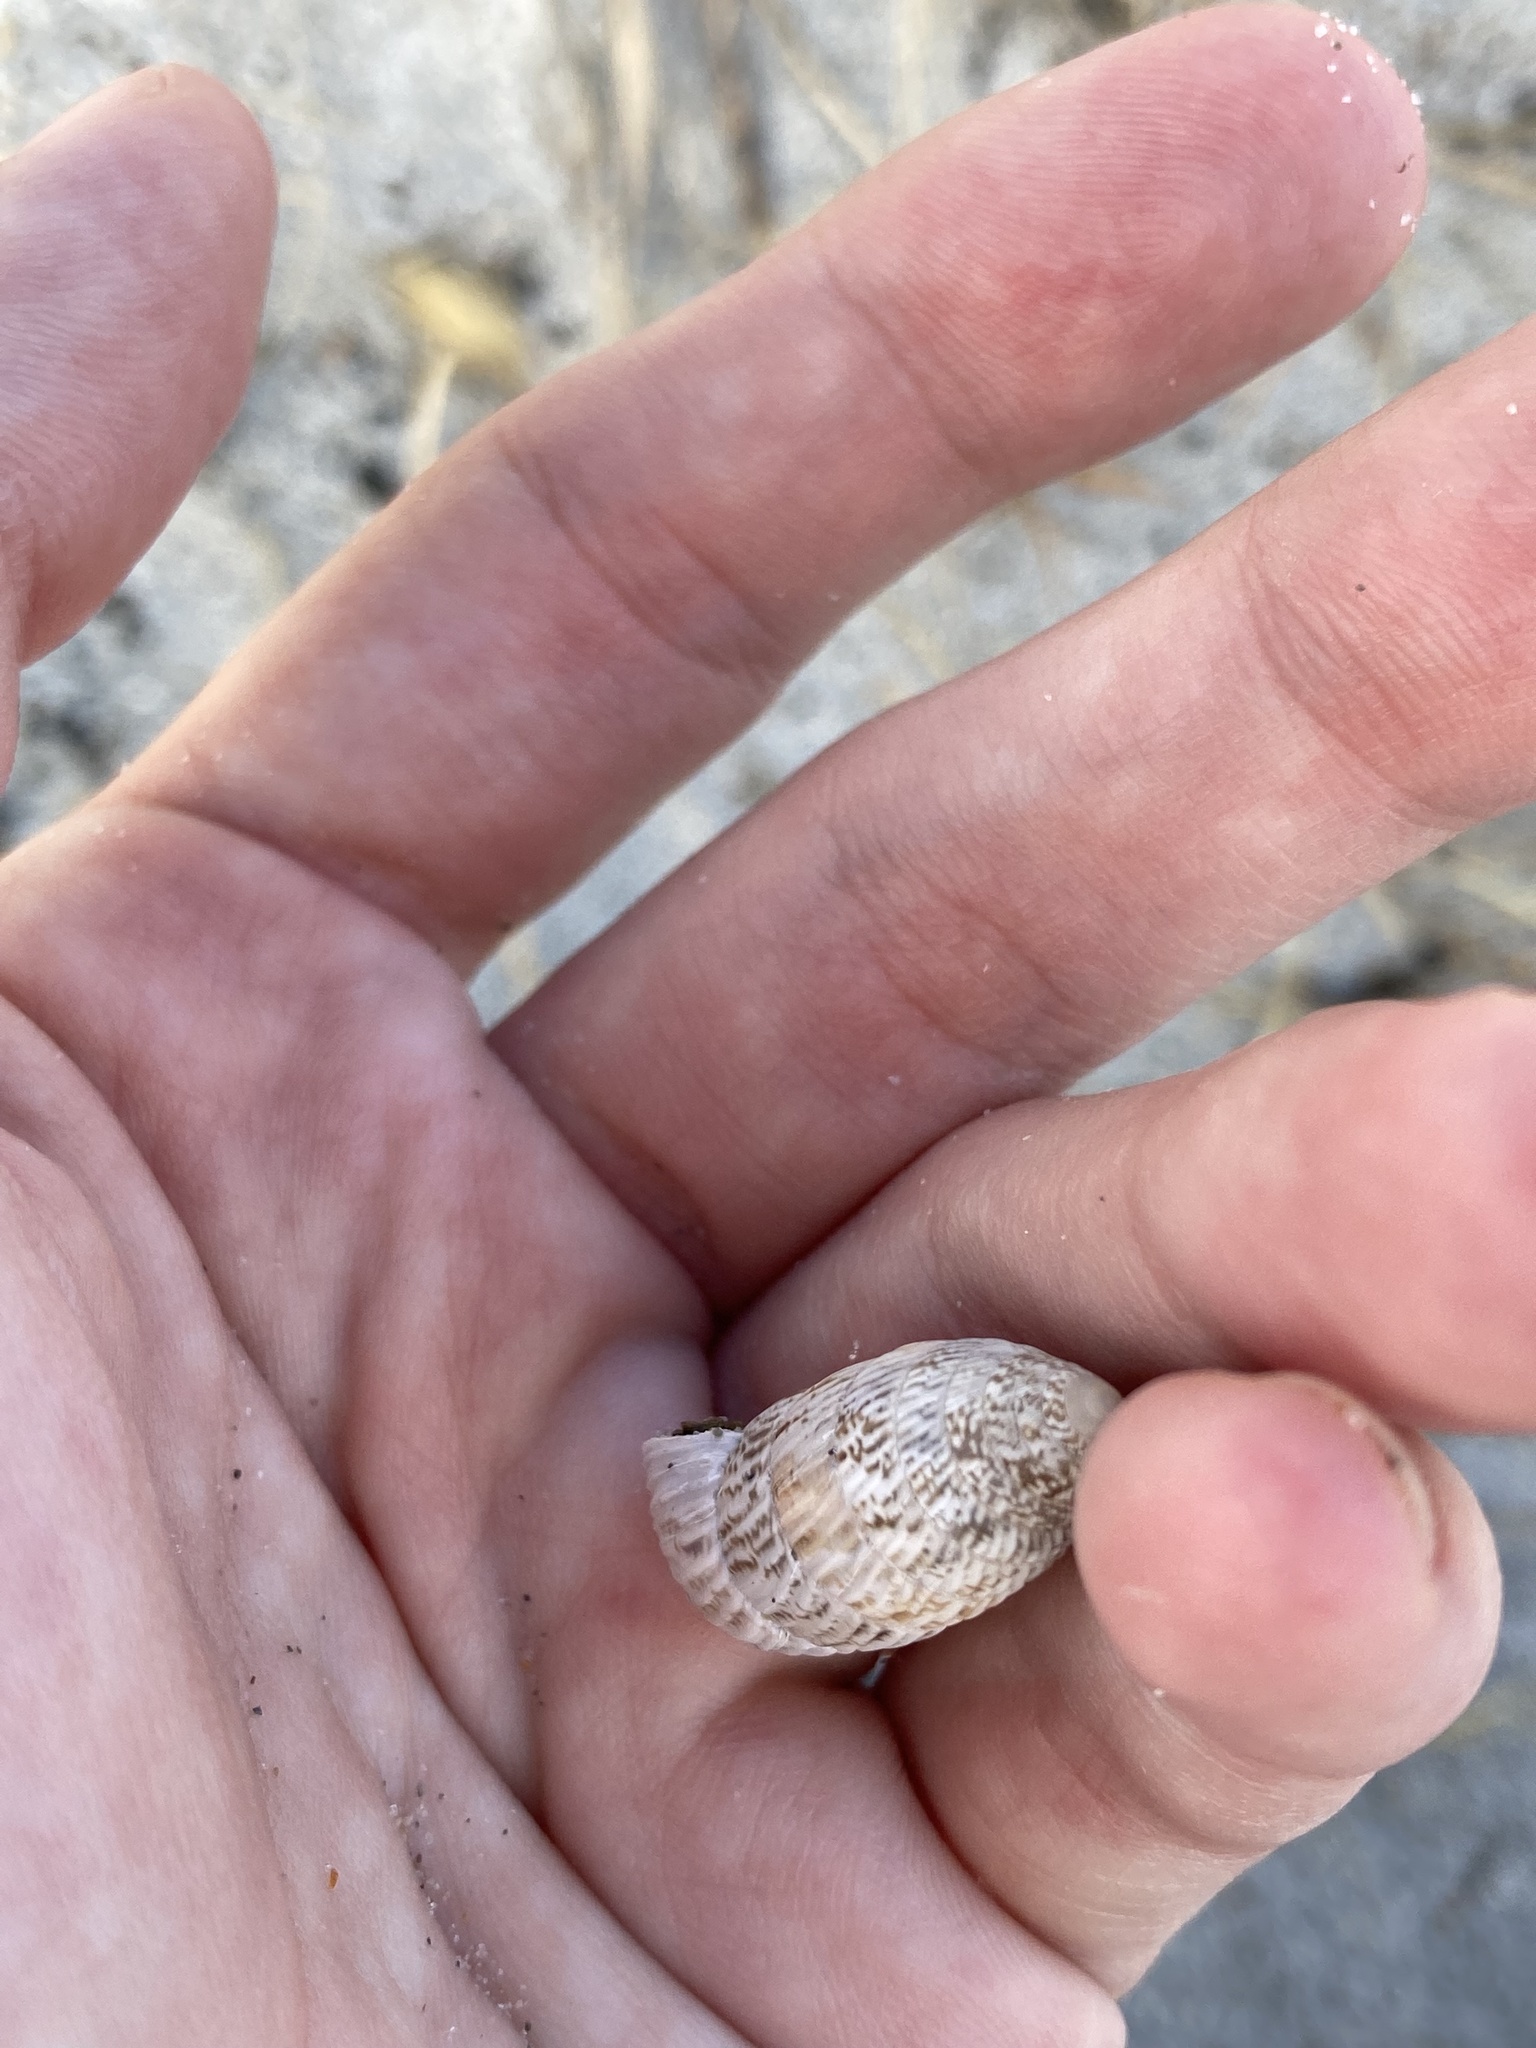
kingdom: Animalia
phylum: Mollusca
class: Gastropoda
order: Stylommatophora
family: Cerionidae
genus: Cerion
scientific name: Cerion tridentatum
